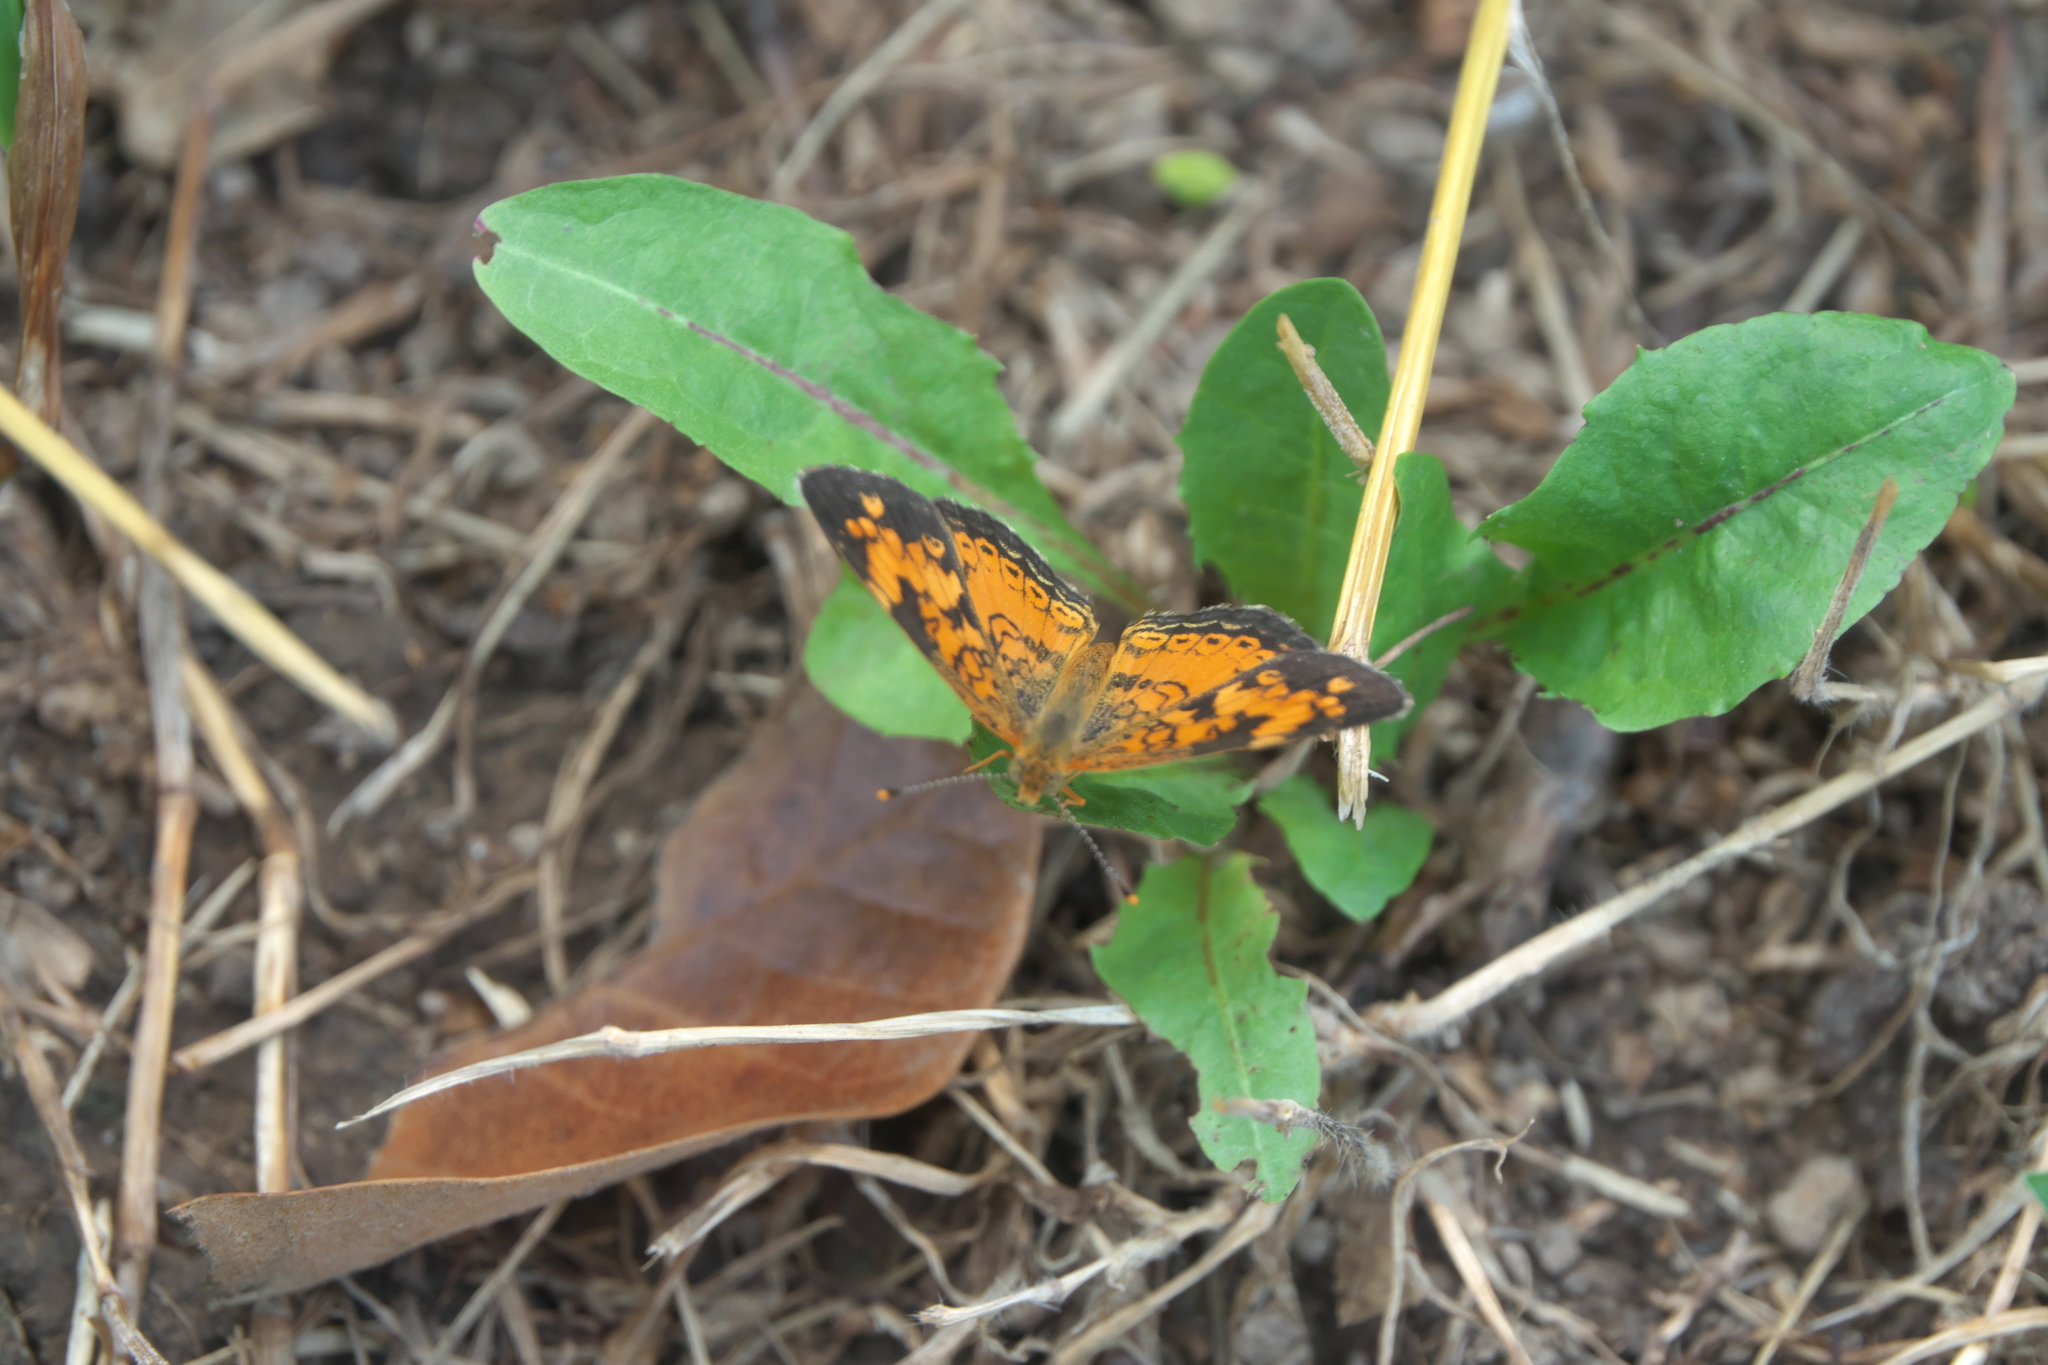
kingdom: Animalia
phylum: Arthropoda
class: Insecta
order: Lepidoptera
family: Nymphalidae
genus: Phyciodes
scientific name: Phyciodes tharos
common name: Pearl crescent
